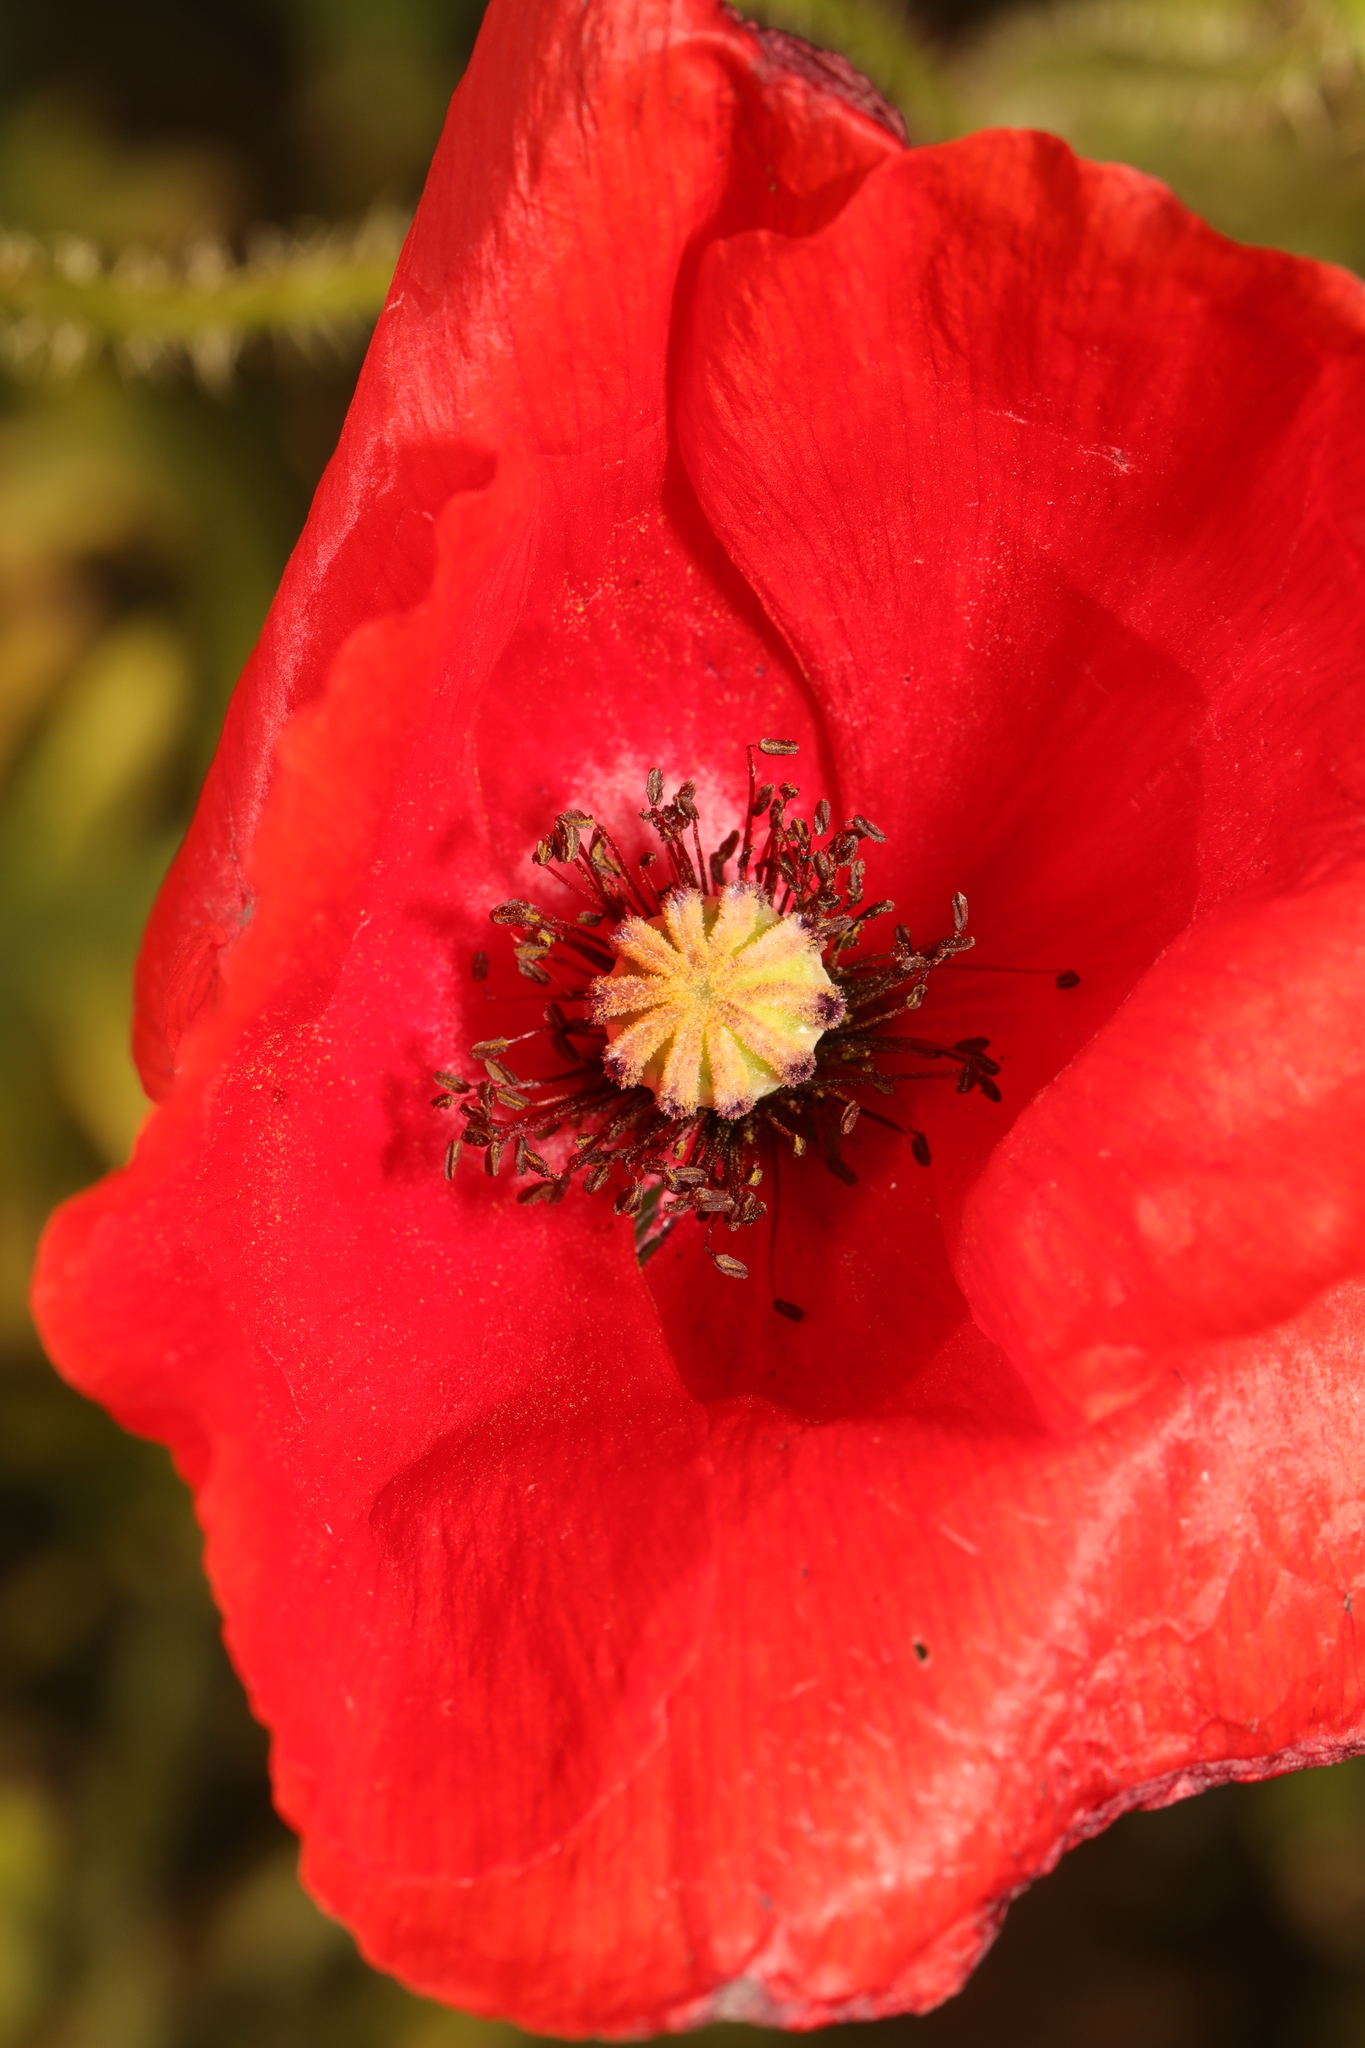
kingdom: Plantae
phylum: Tracheophyta
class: Magnoliopsida
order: Ranunculales
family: Papaveraceae
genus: Papaver
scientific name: Papaver rhoeas
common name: Corn poppy
